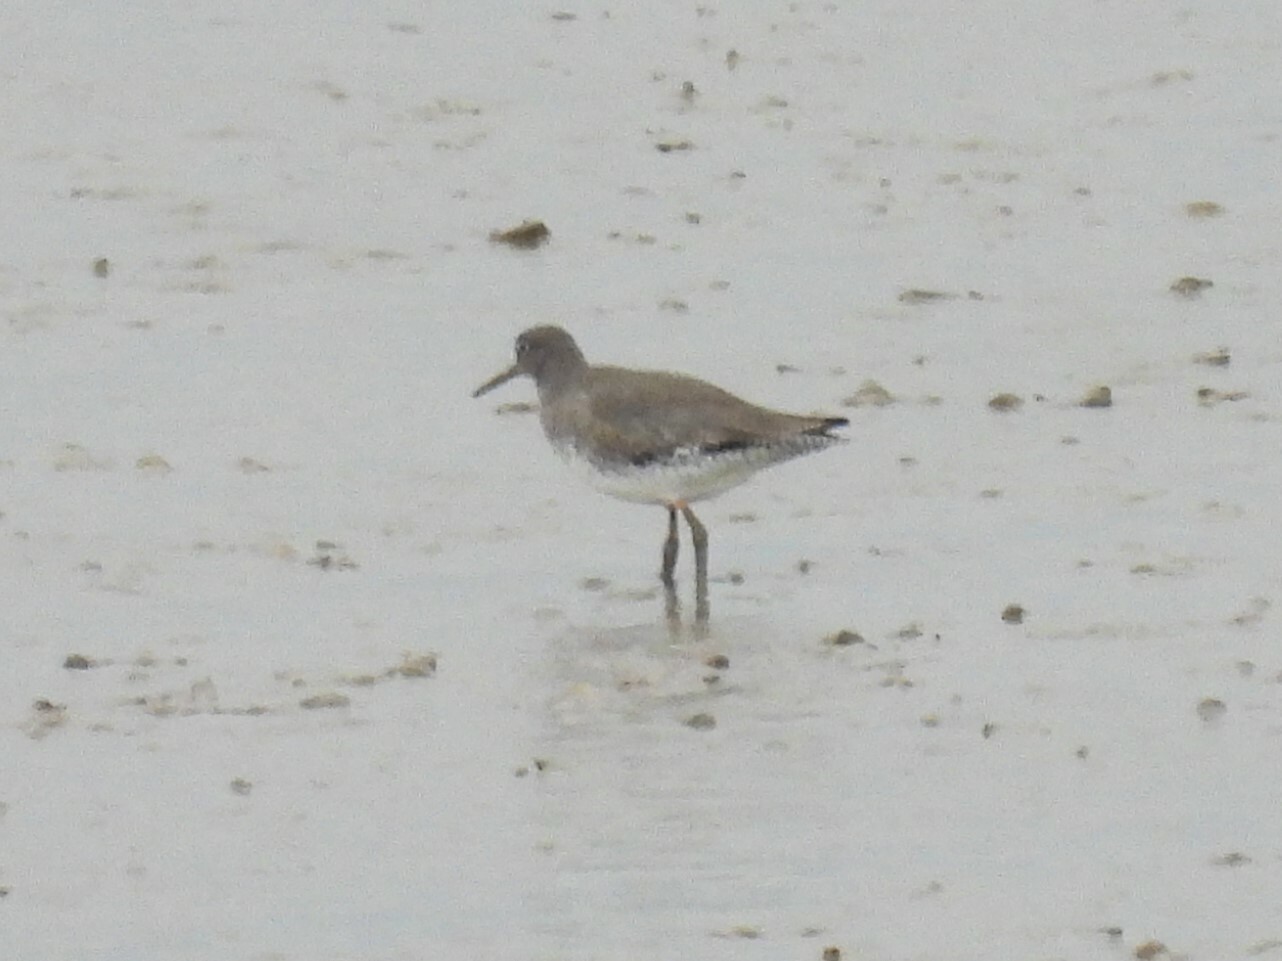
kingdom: Animalia
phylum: Chordata
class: Aves
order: Charadriiformes
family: Scolopacidae
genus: Tringa
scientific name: Tringa totanus
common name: Common redshank
